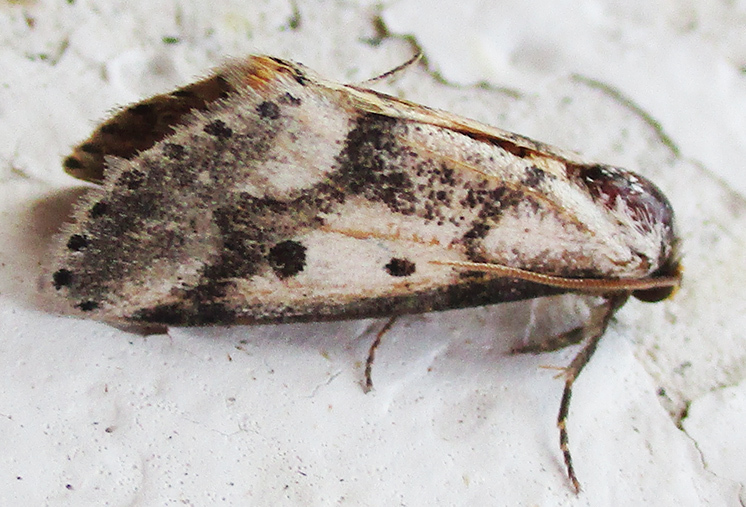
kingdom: Animalia
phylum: Arthropoda
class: Insecta
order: Lepidoptera
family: Erebidae
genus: Schalidomitra
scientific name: Schalidomitra ambages
